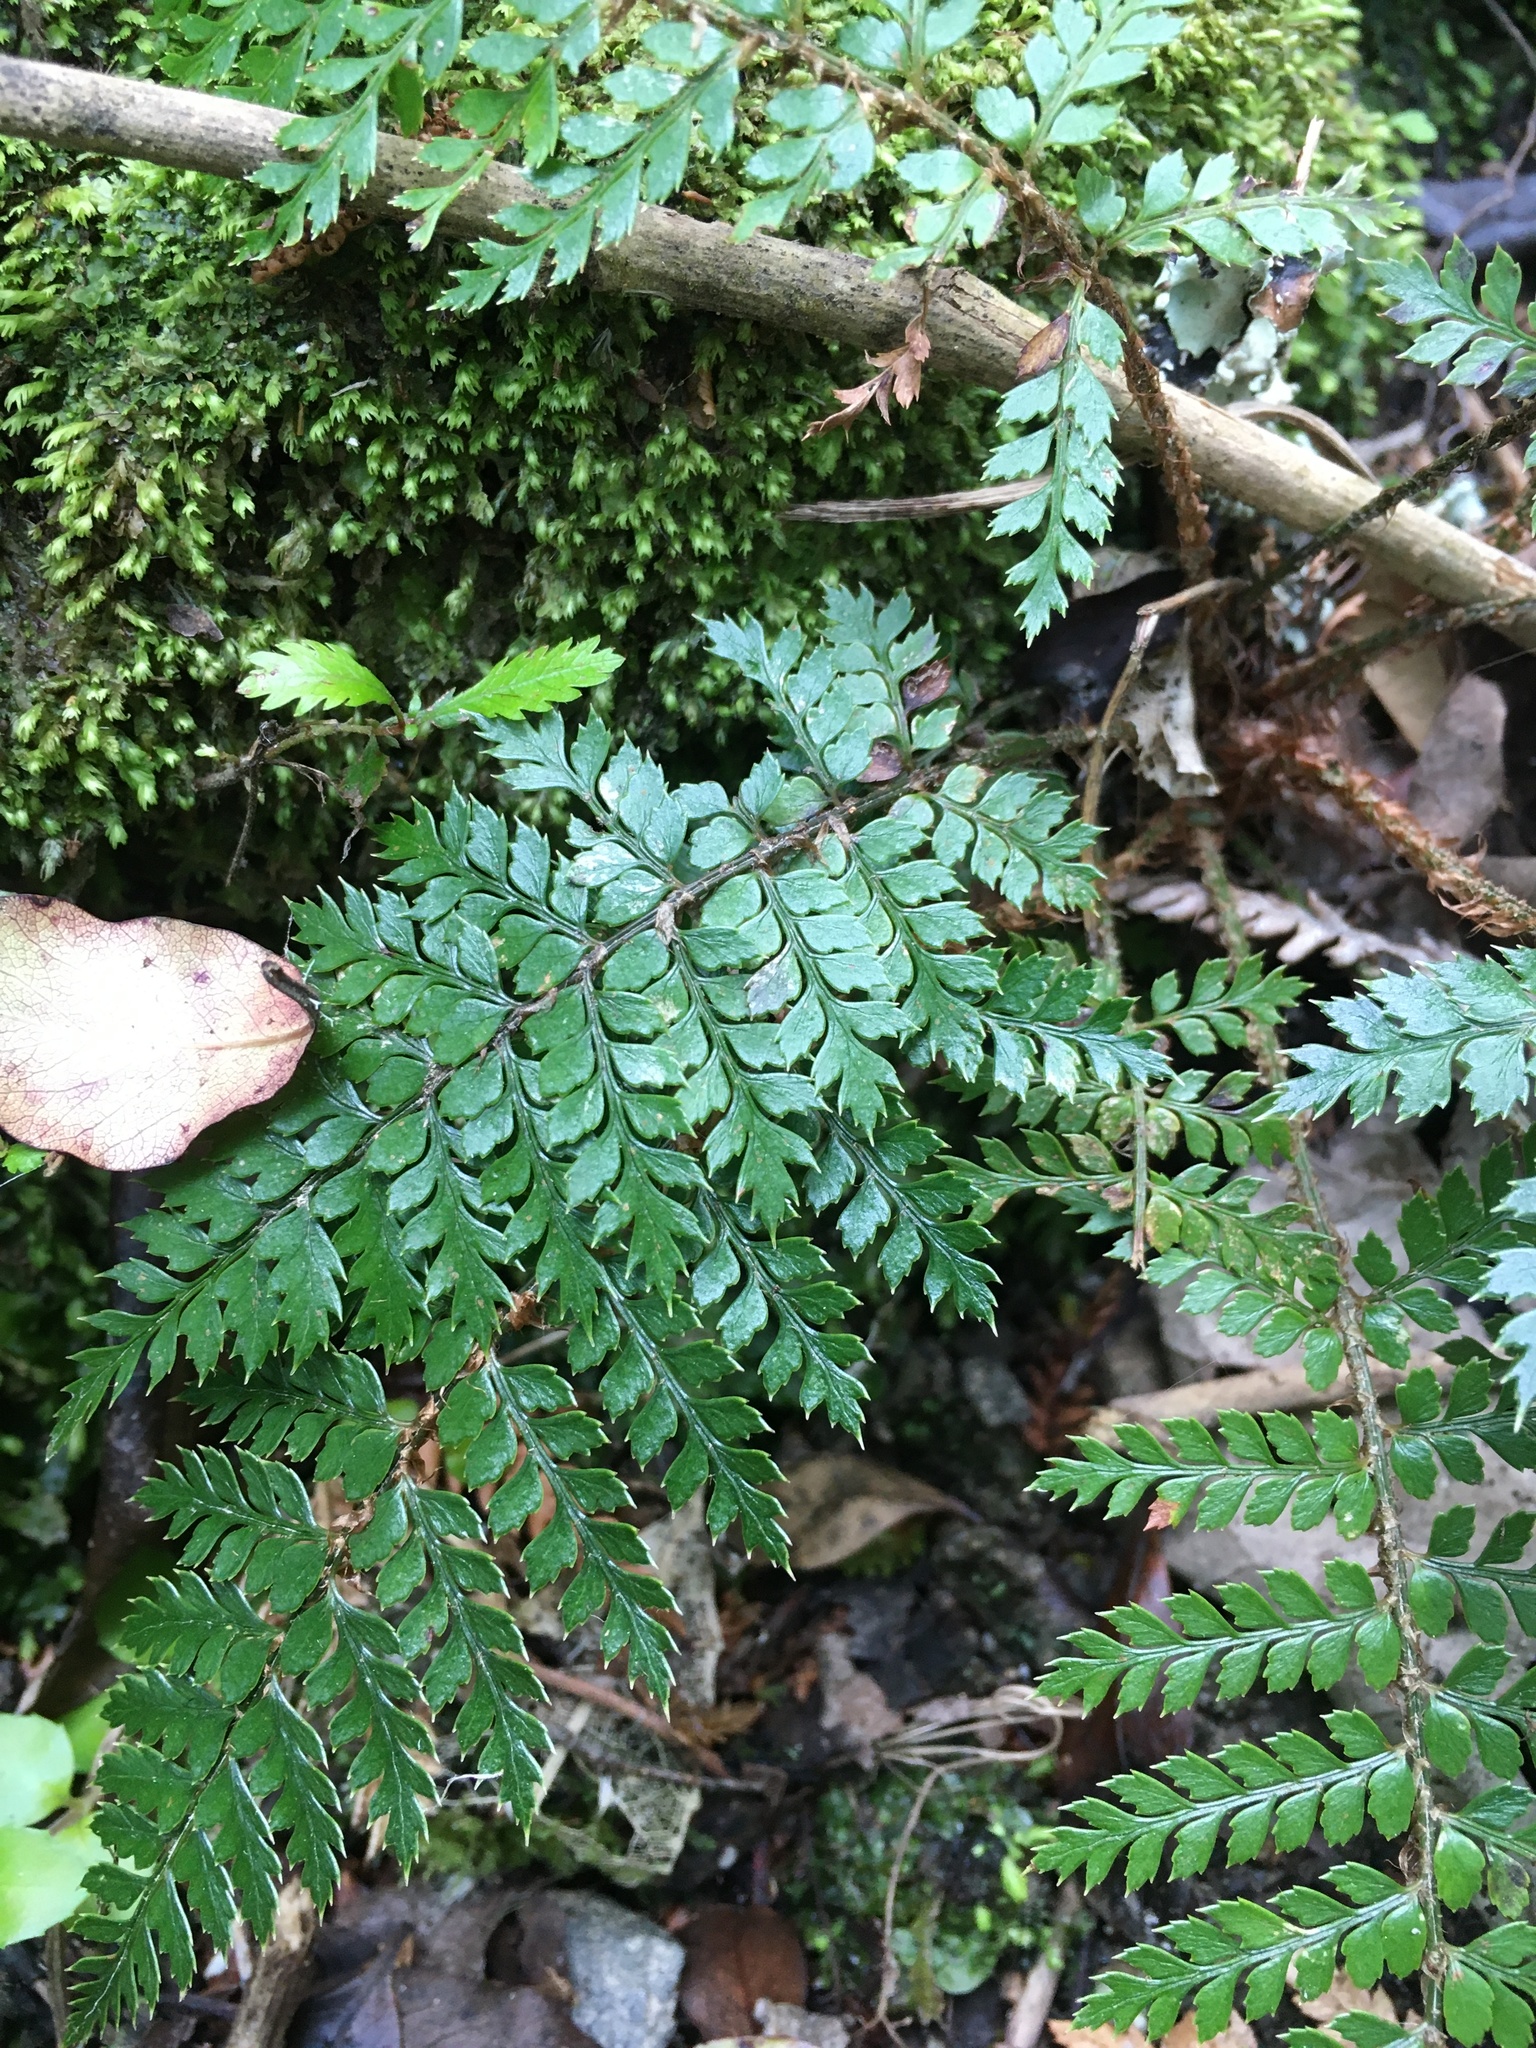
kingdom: Plantae
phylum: Tracheophyta
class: Polypodiopsida
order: Polypodiales
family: Dryopteridaceae
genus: Polystichum
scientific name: Polystichum vestitum
